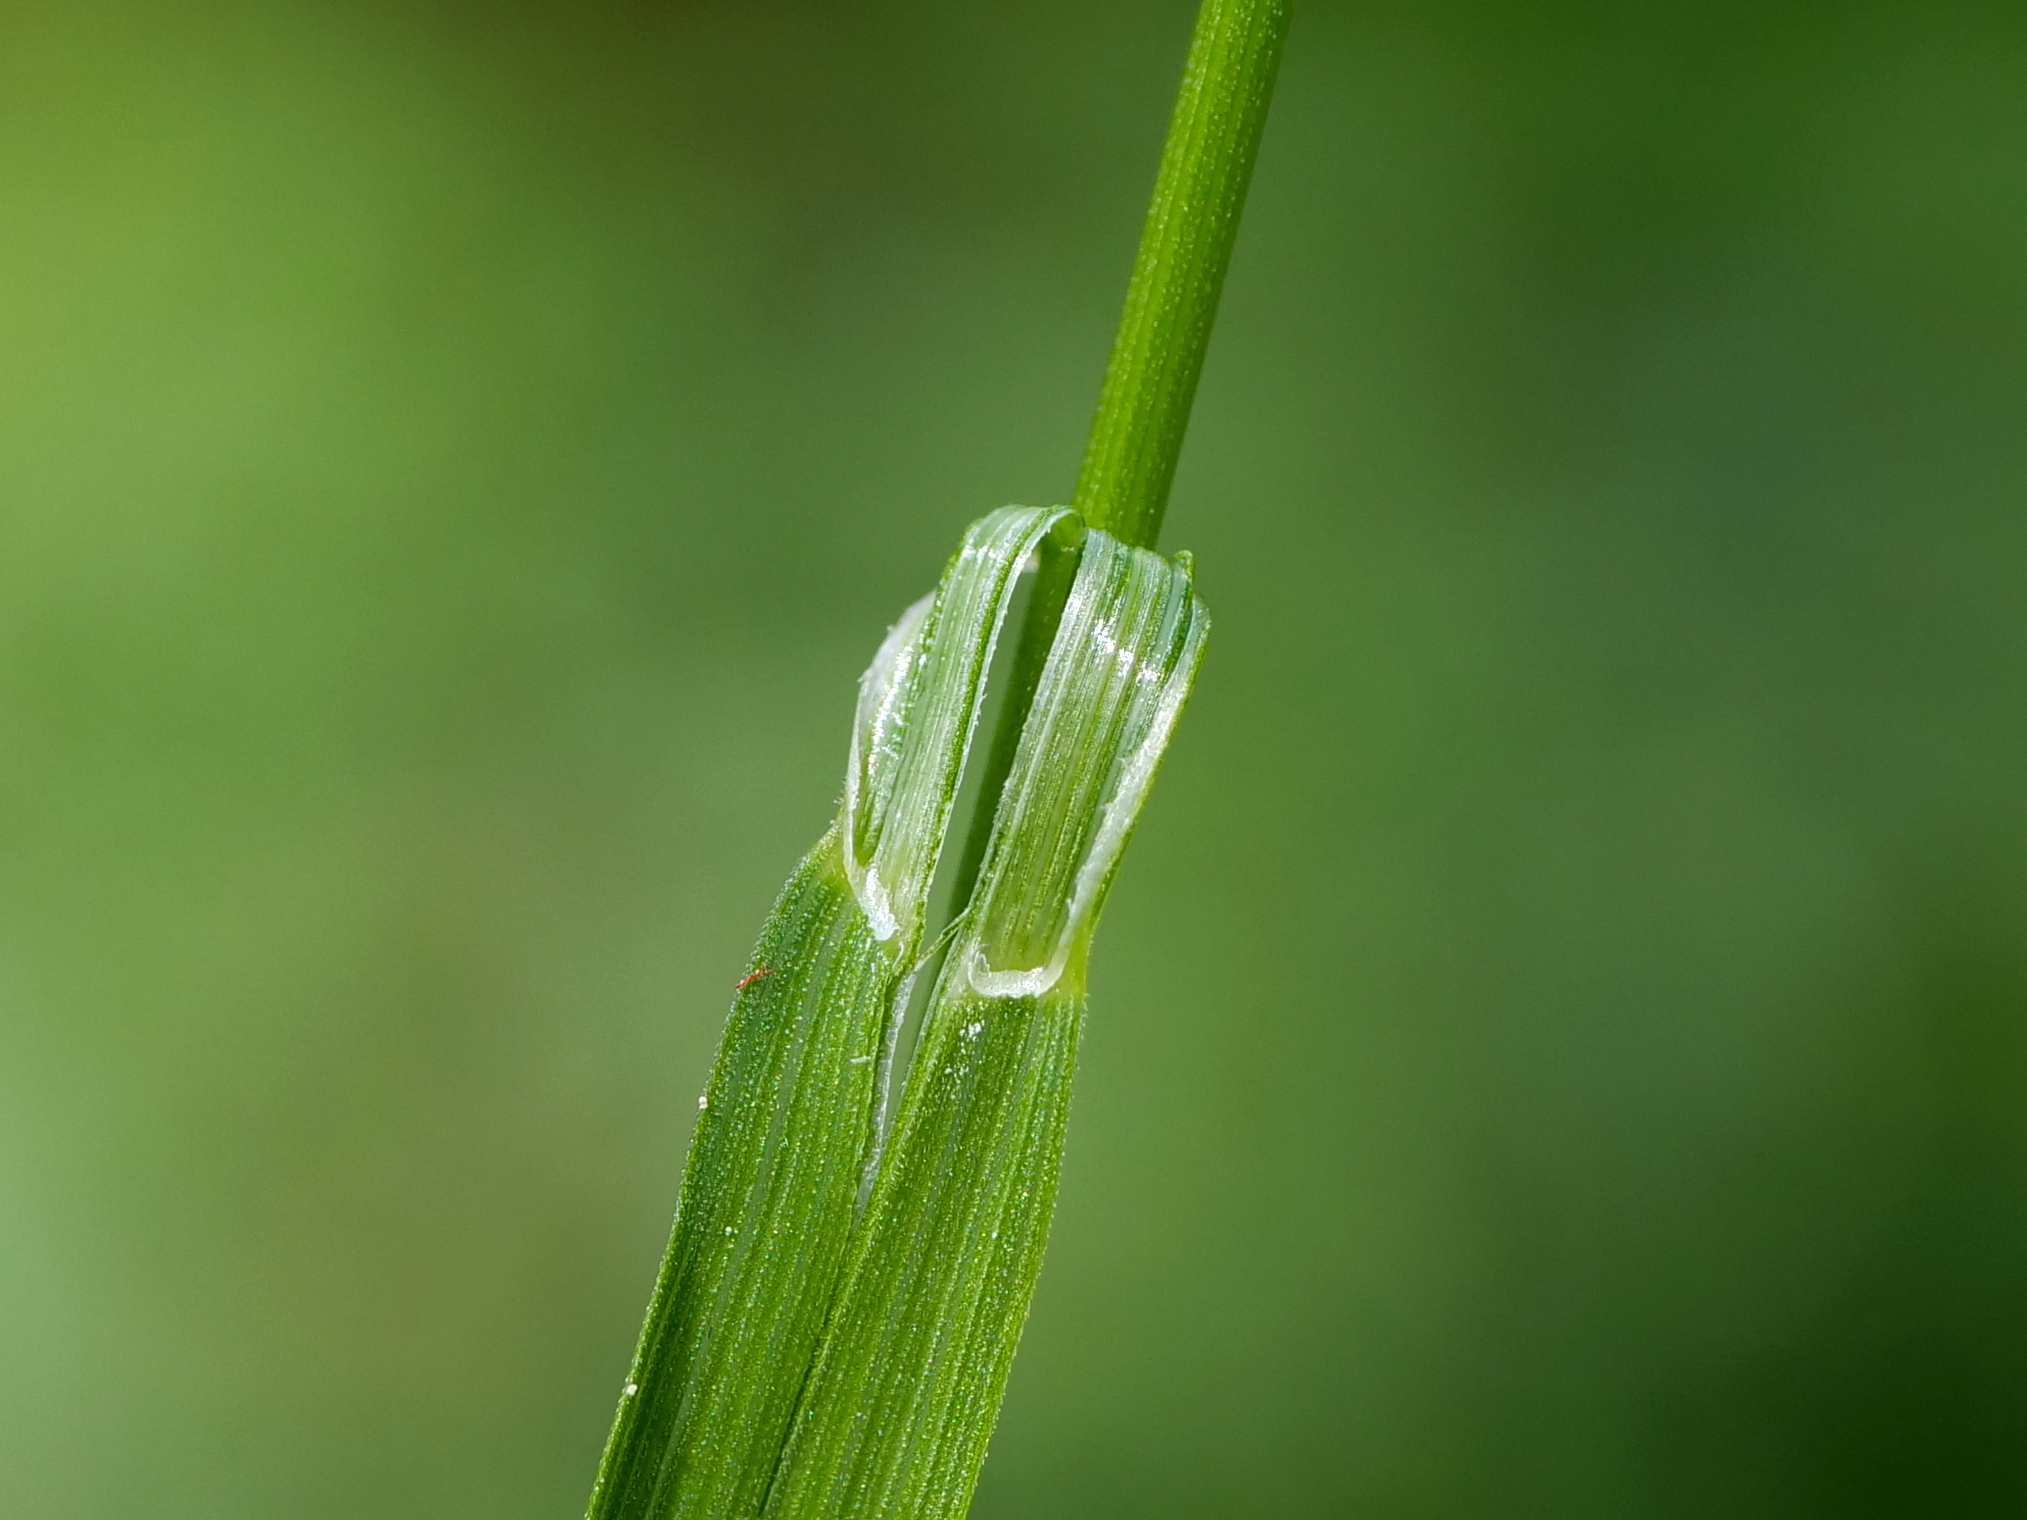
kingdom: Plantae
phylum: Tracheophyta
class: Liliopsida
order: Poales
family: Poaceae
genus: Melica
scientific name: Melica nutans
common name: Mountain melick
